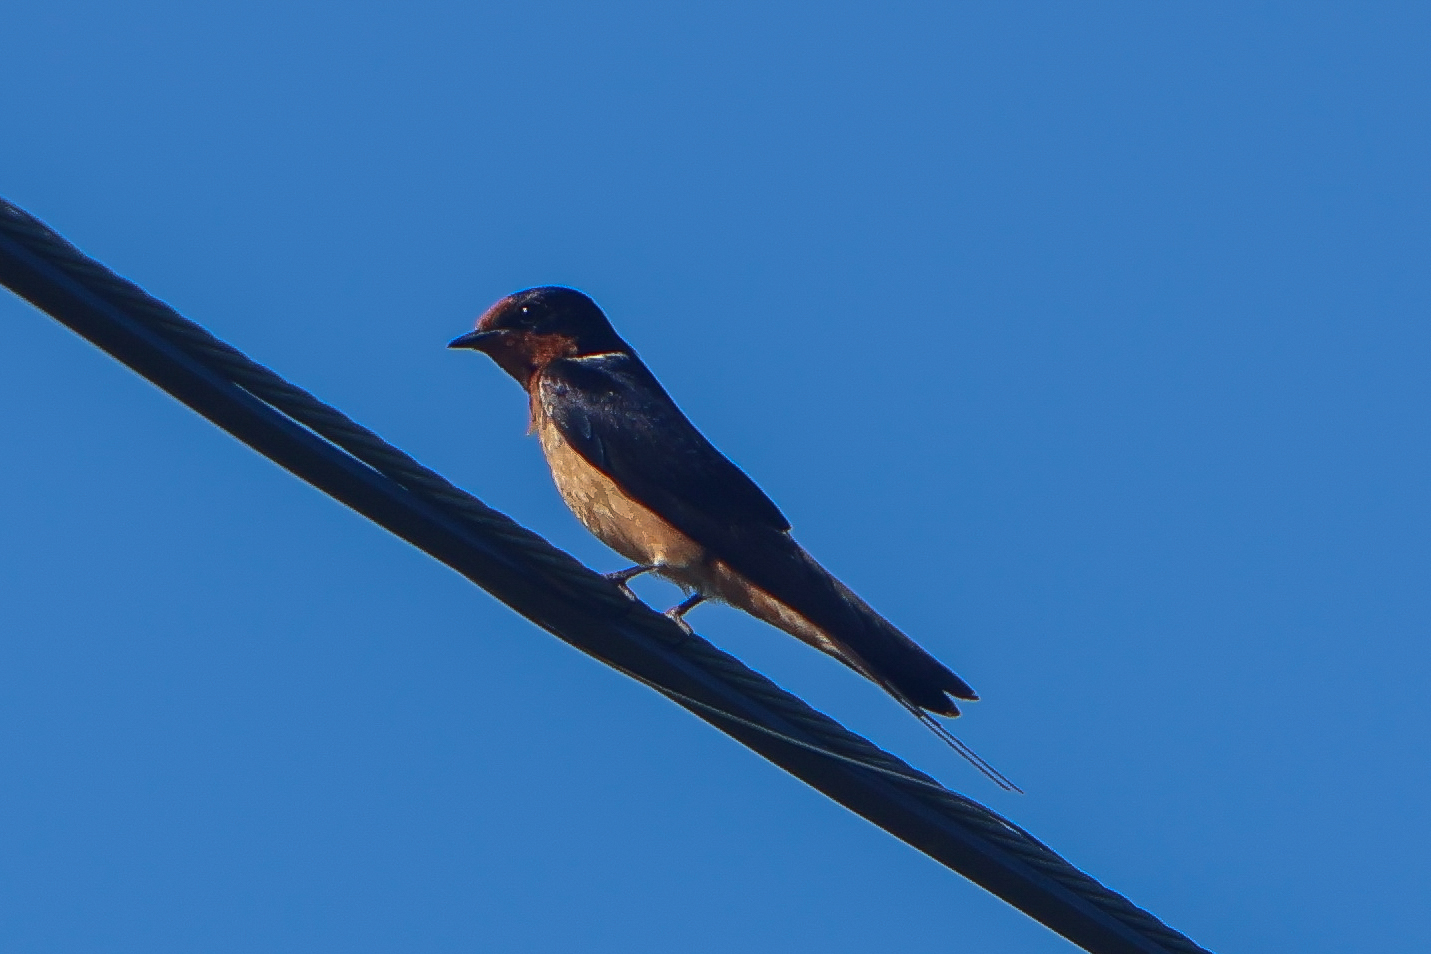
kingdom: Animalia
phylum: Chordata
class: Aves
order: Passeriformes
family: Hirundinidae
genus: Hirundo
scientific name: Hirundo rustica
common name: Barn swallow
